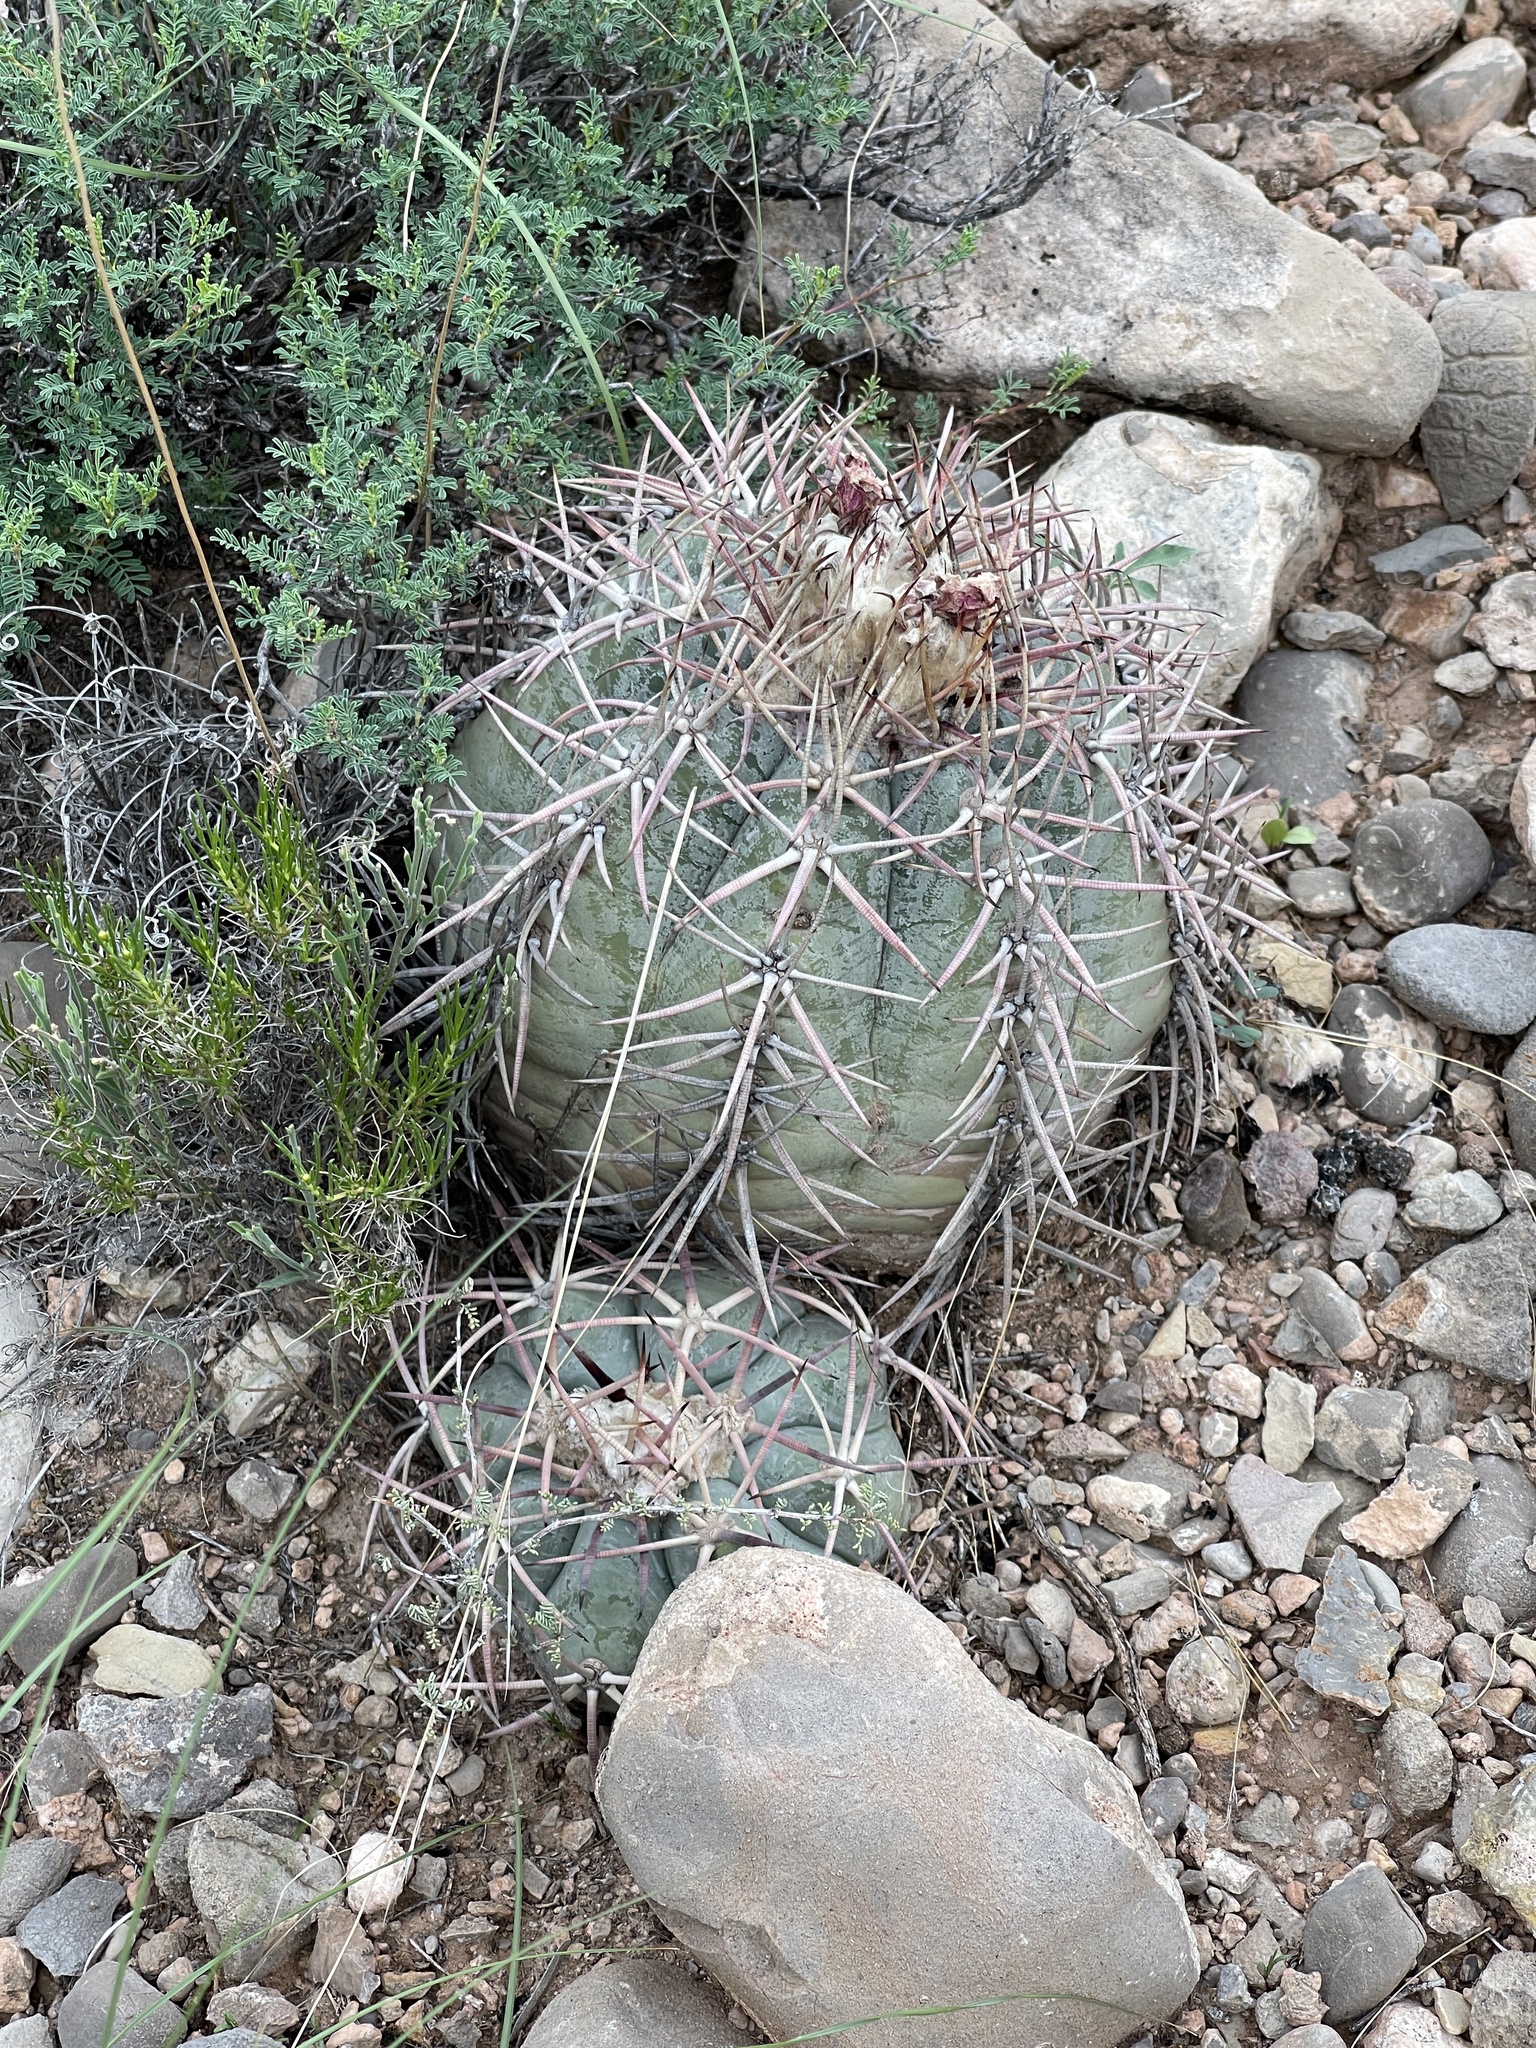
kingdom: Plantae
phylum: Tracheophyta
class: Magnoliopsida
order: Caryophyllales
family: Cactaceae
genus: Echinocactus
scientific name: Echinocactus horizonthalonius
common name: Devilshead
